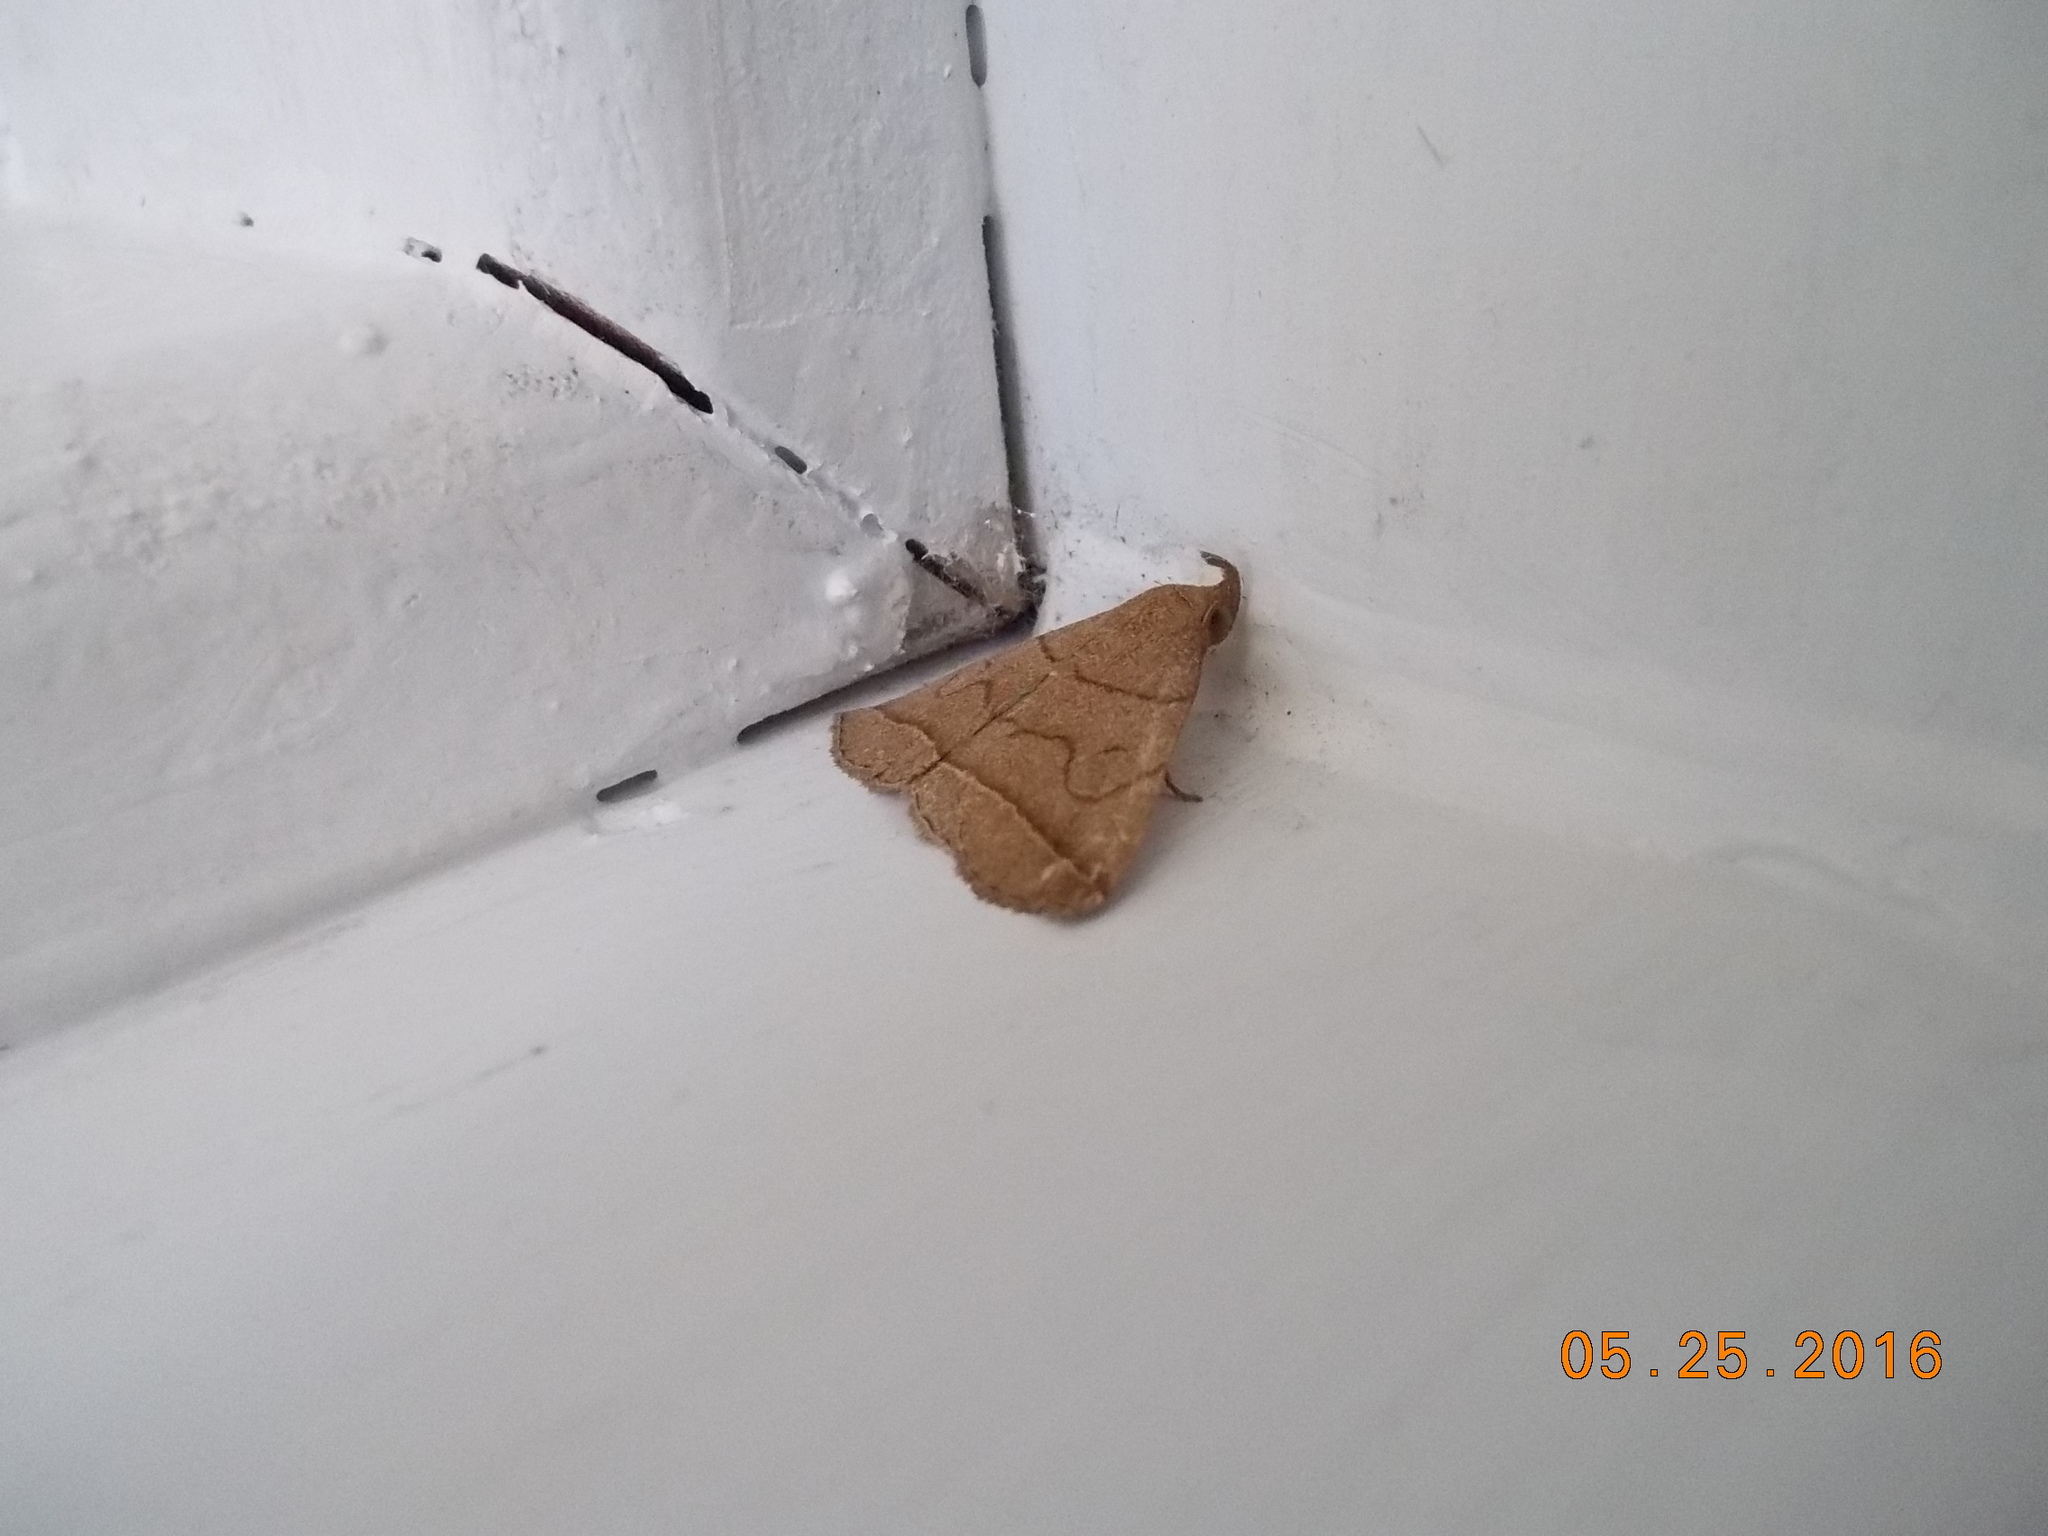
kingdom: Animalia
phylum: Arthropoda
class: Insecta
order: Lepidoptera
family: Erebidae
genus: Zanclognatha
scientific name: Zanclognatha cruralis
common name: Early fan-foot
